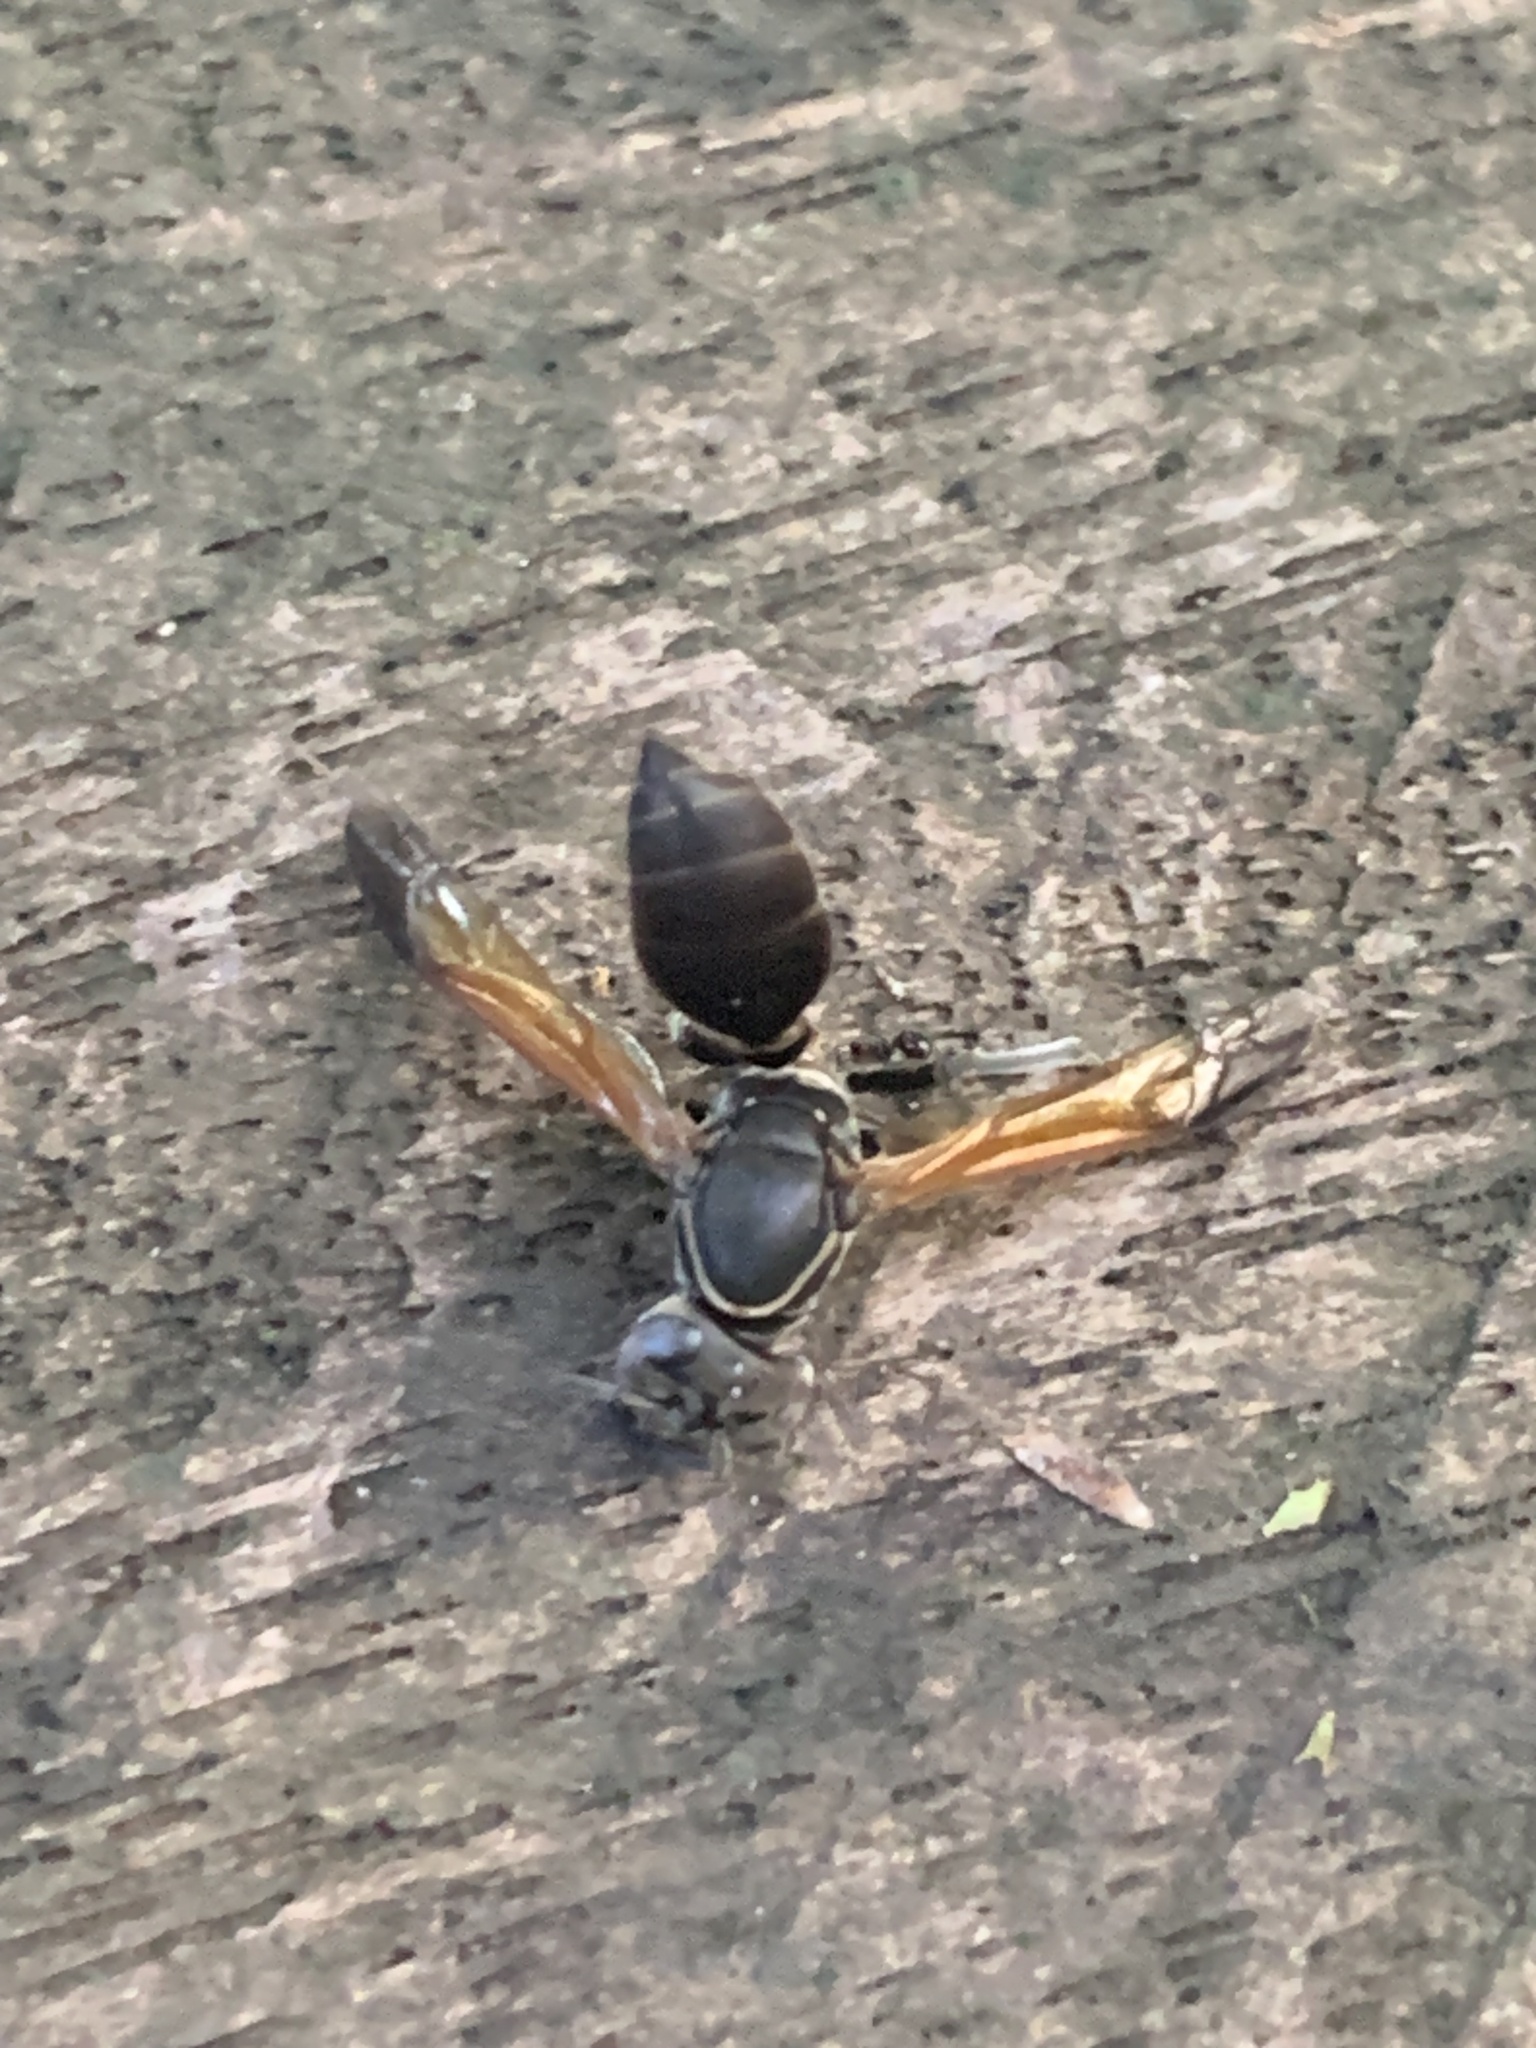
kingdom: Animalia
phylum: Arthropoda
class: Insecta
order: Hymenoptera
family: Eumenidae
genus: Polybia
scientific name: Polybia rejecta
